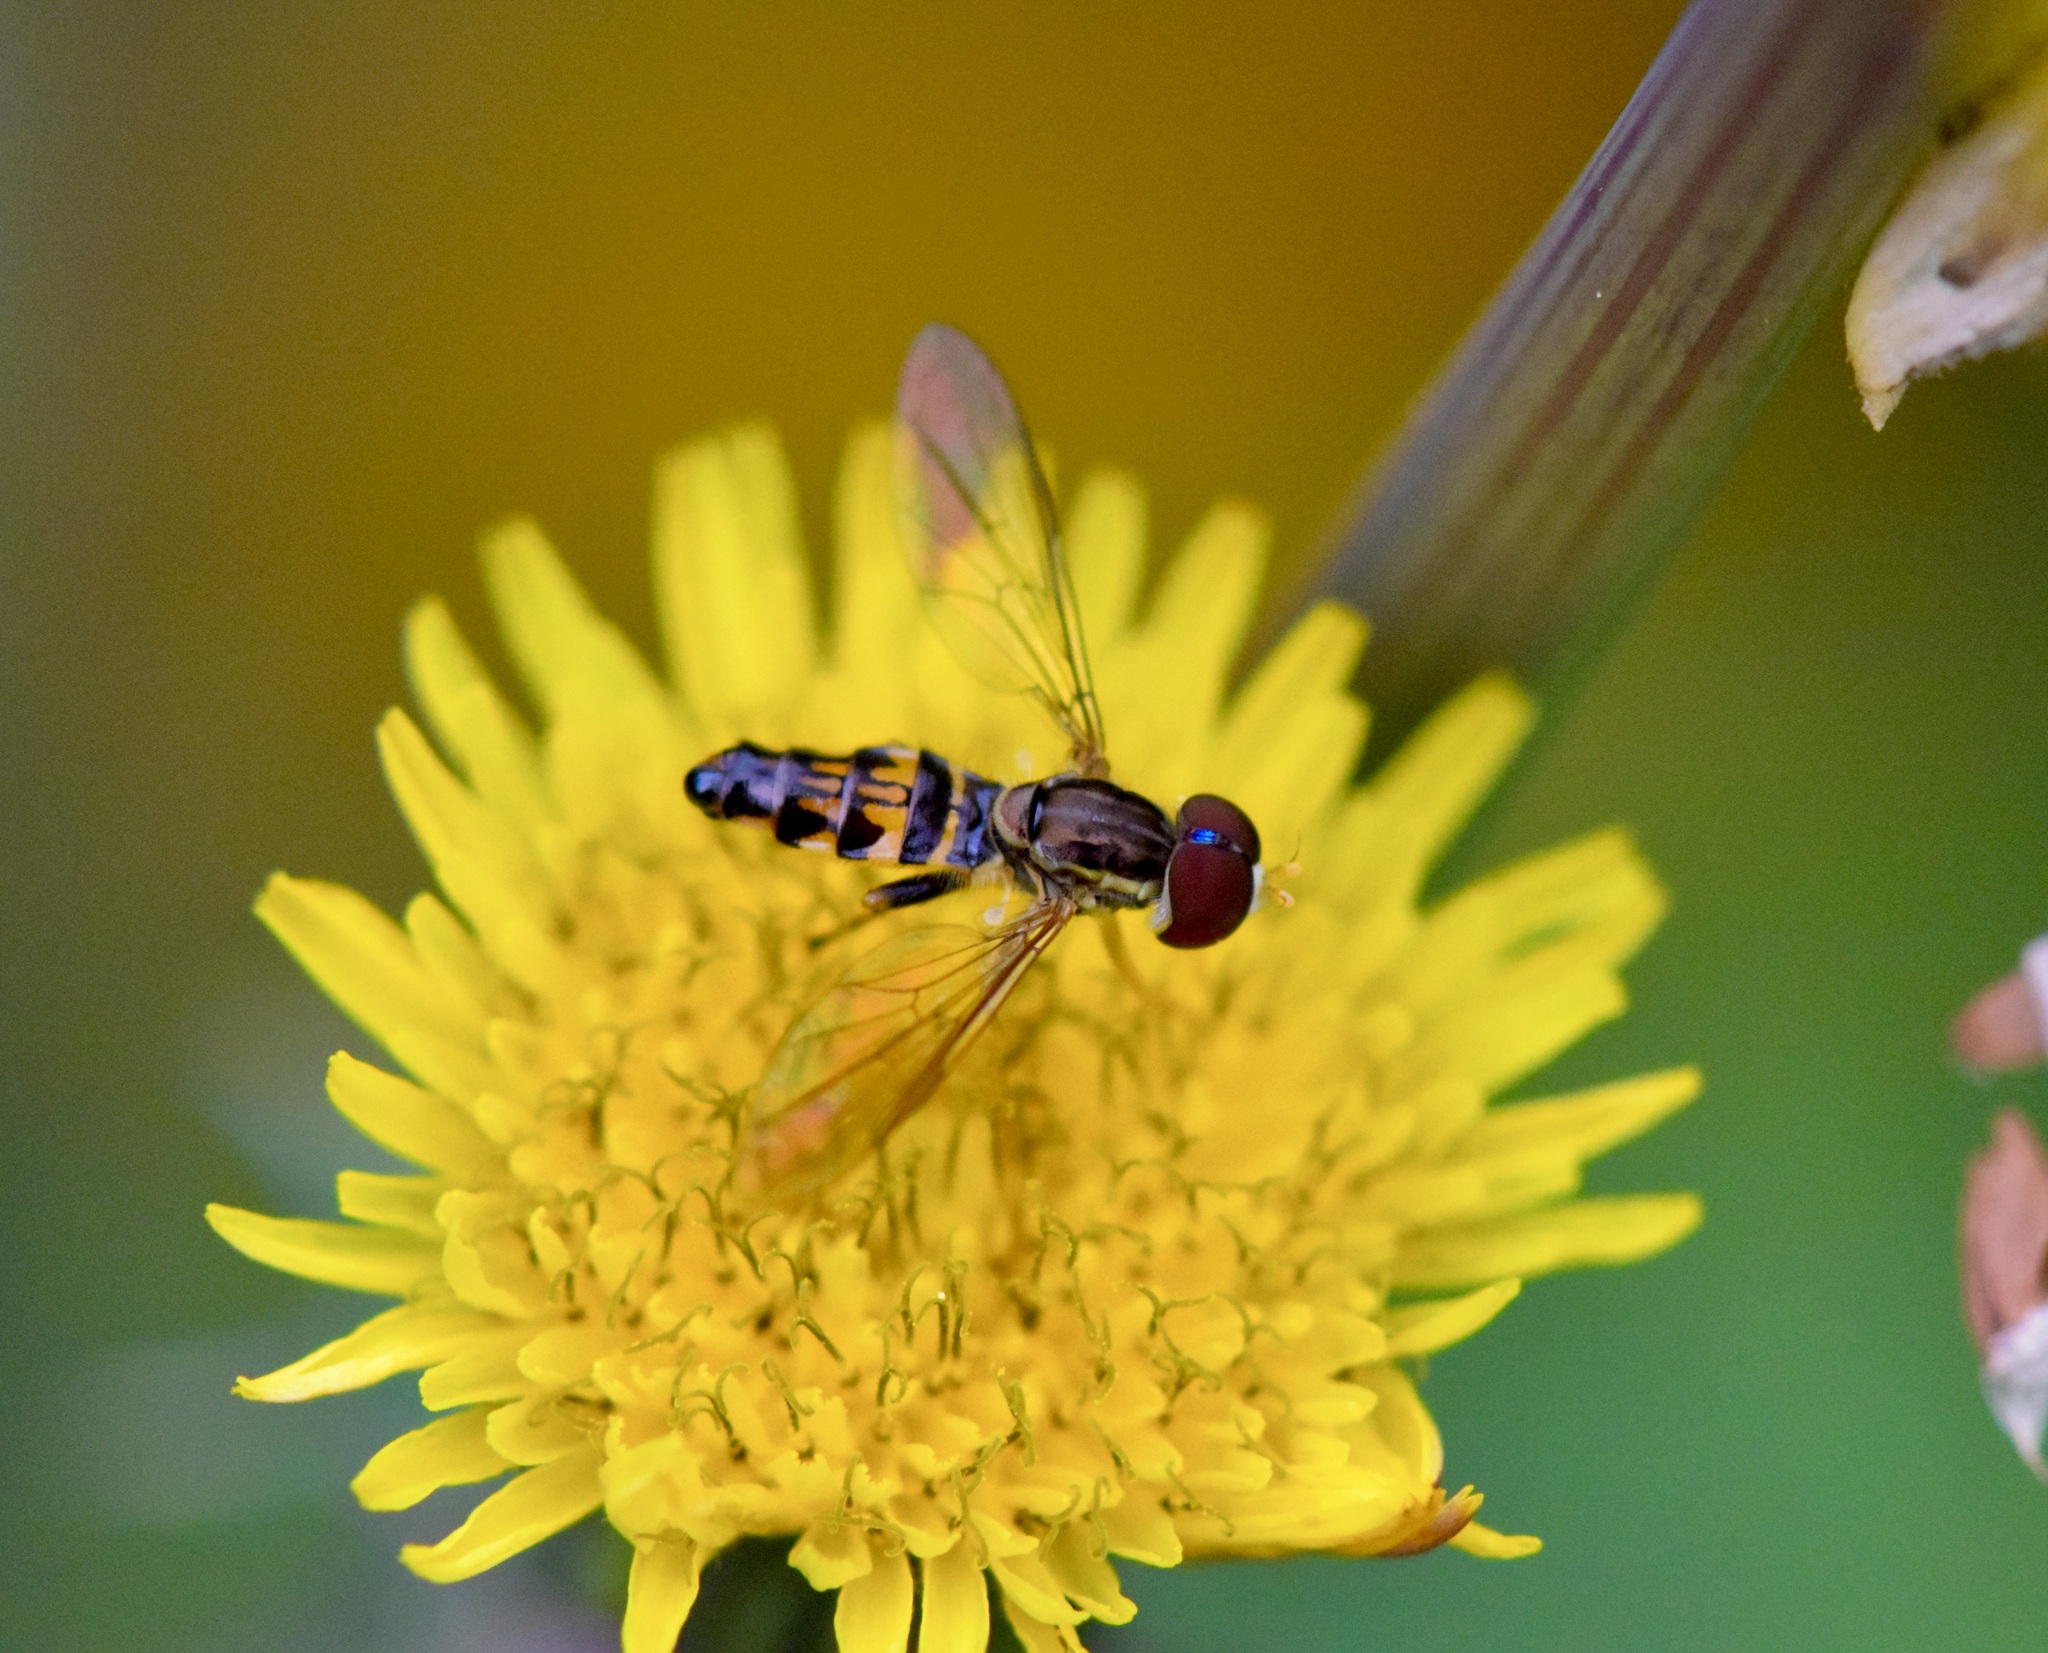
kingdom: Animalia
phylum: Arthropoda
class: Insecta
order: Diptera
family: Syrphidae
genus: Toxomerus
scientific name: Toxomerus geminatus
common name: Eastern calligrapher
